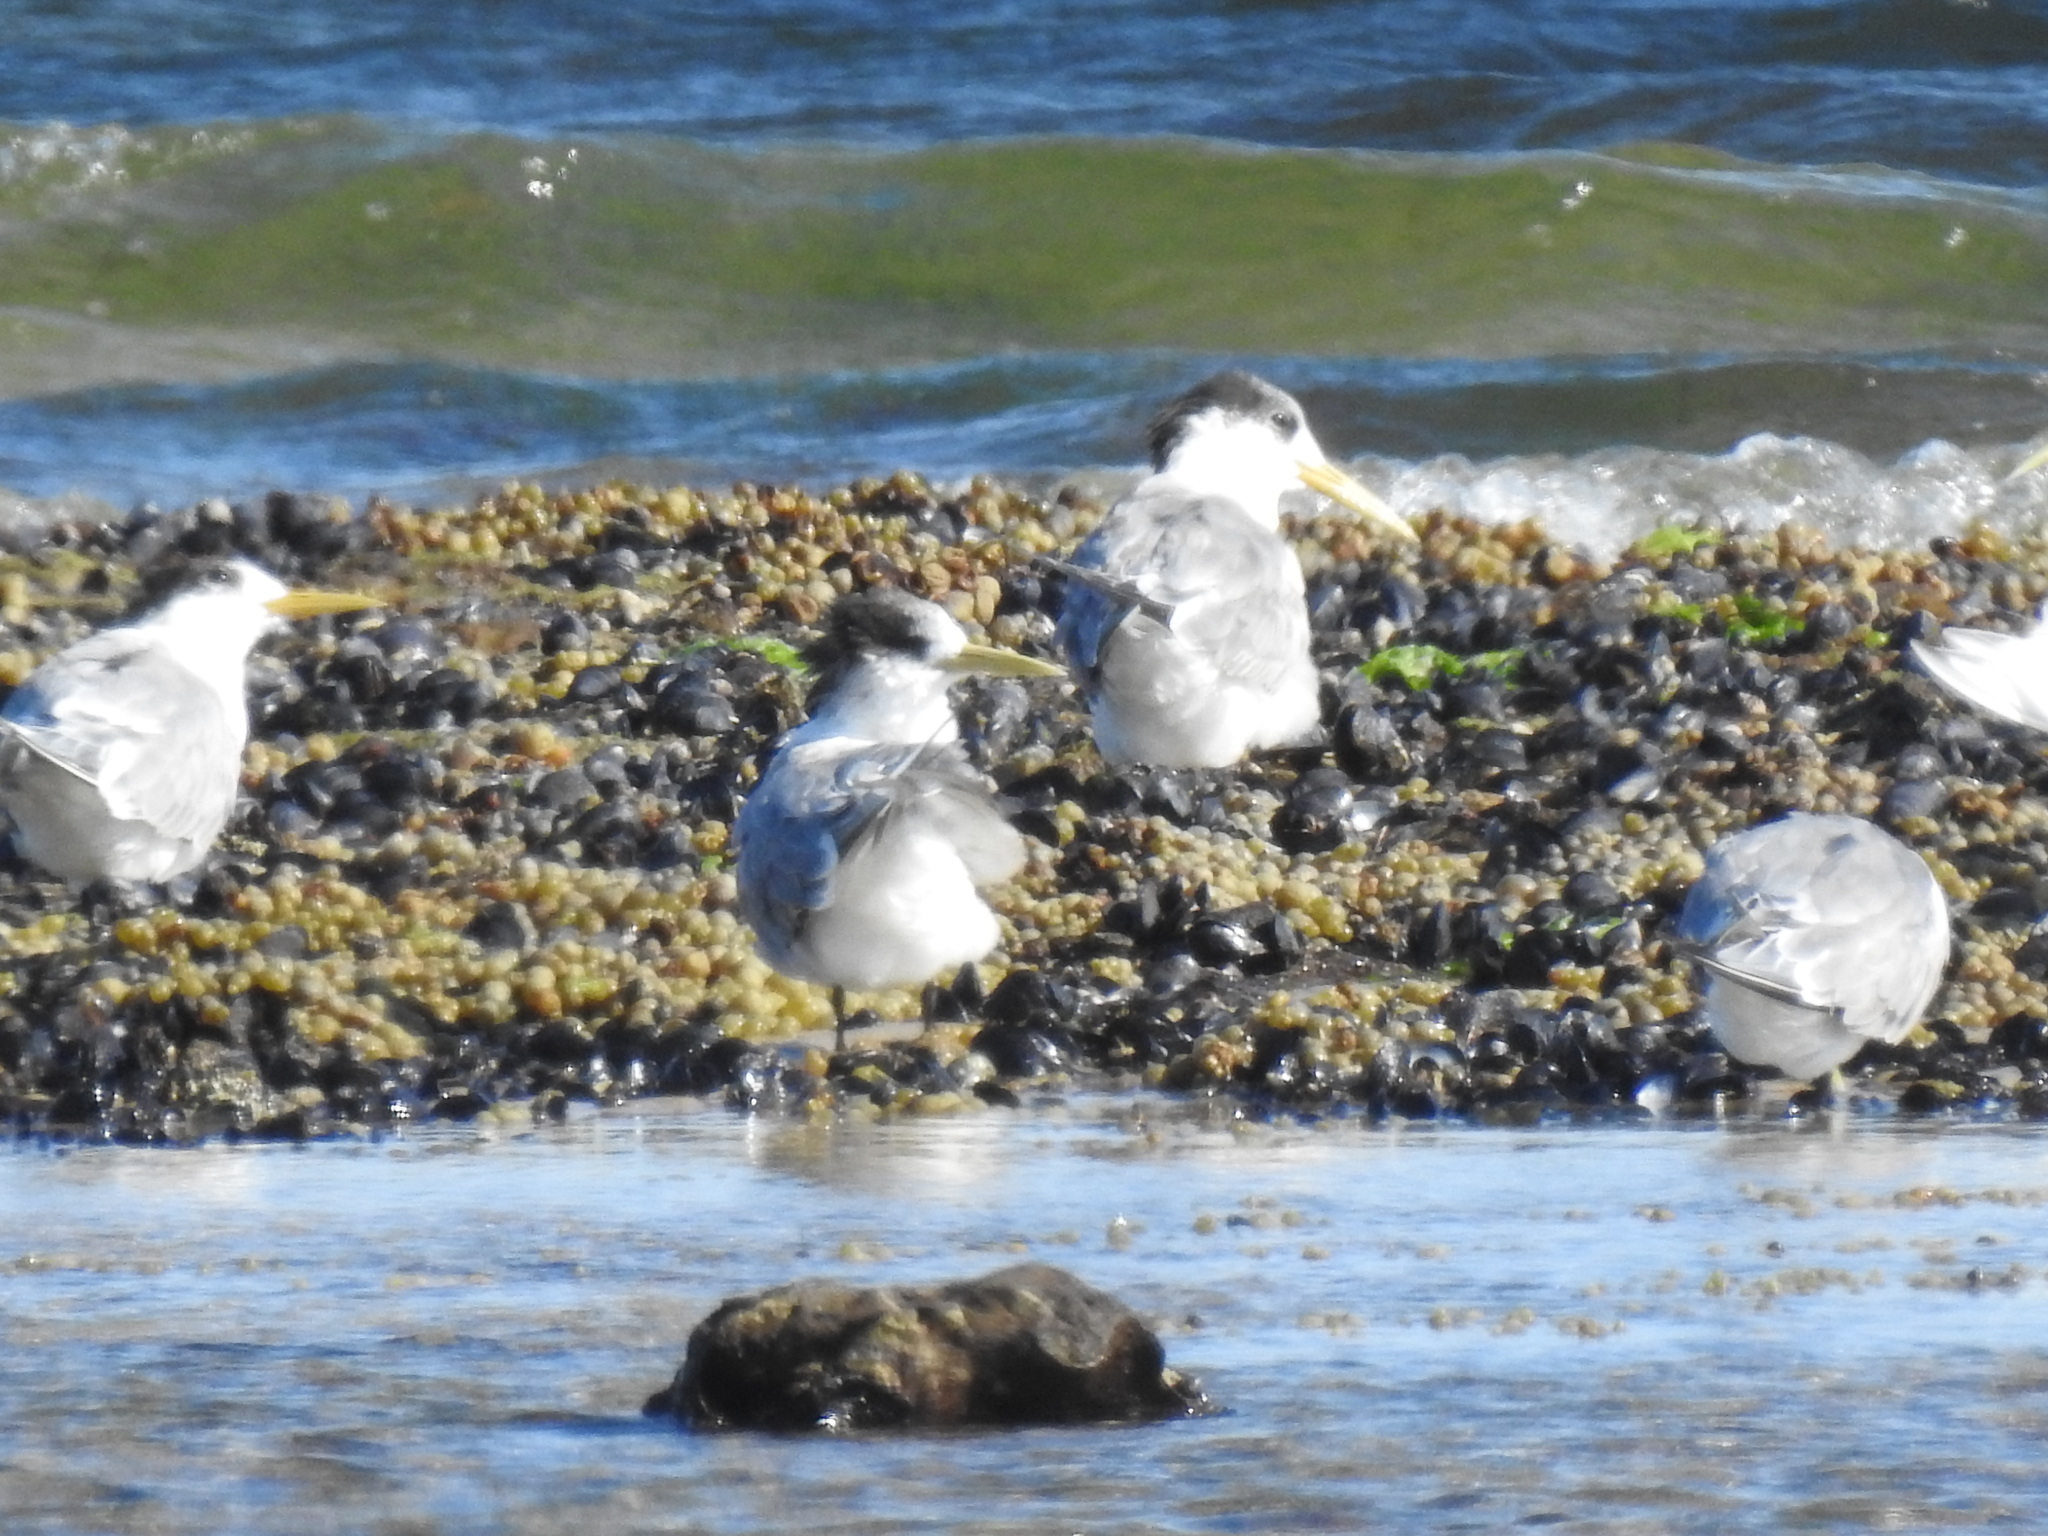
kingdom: Animalia
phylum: Chordata
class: Aves
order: Charadriiformes
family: Laridae
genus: Thalasseus
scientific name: Thalasseus bergii
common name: Greater crested tern
